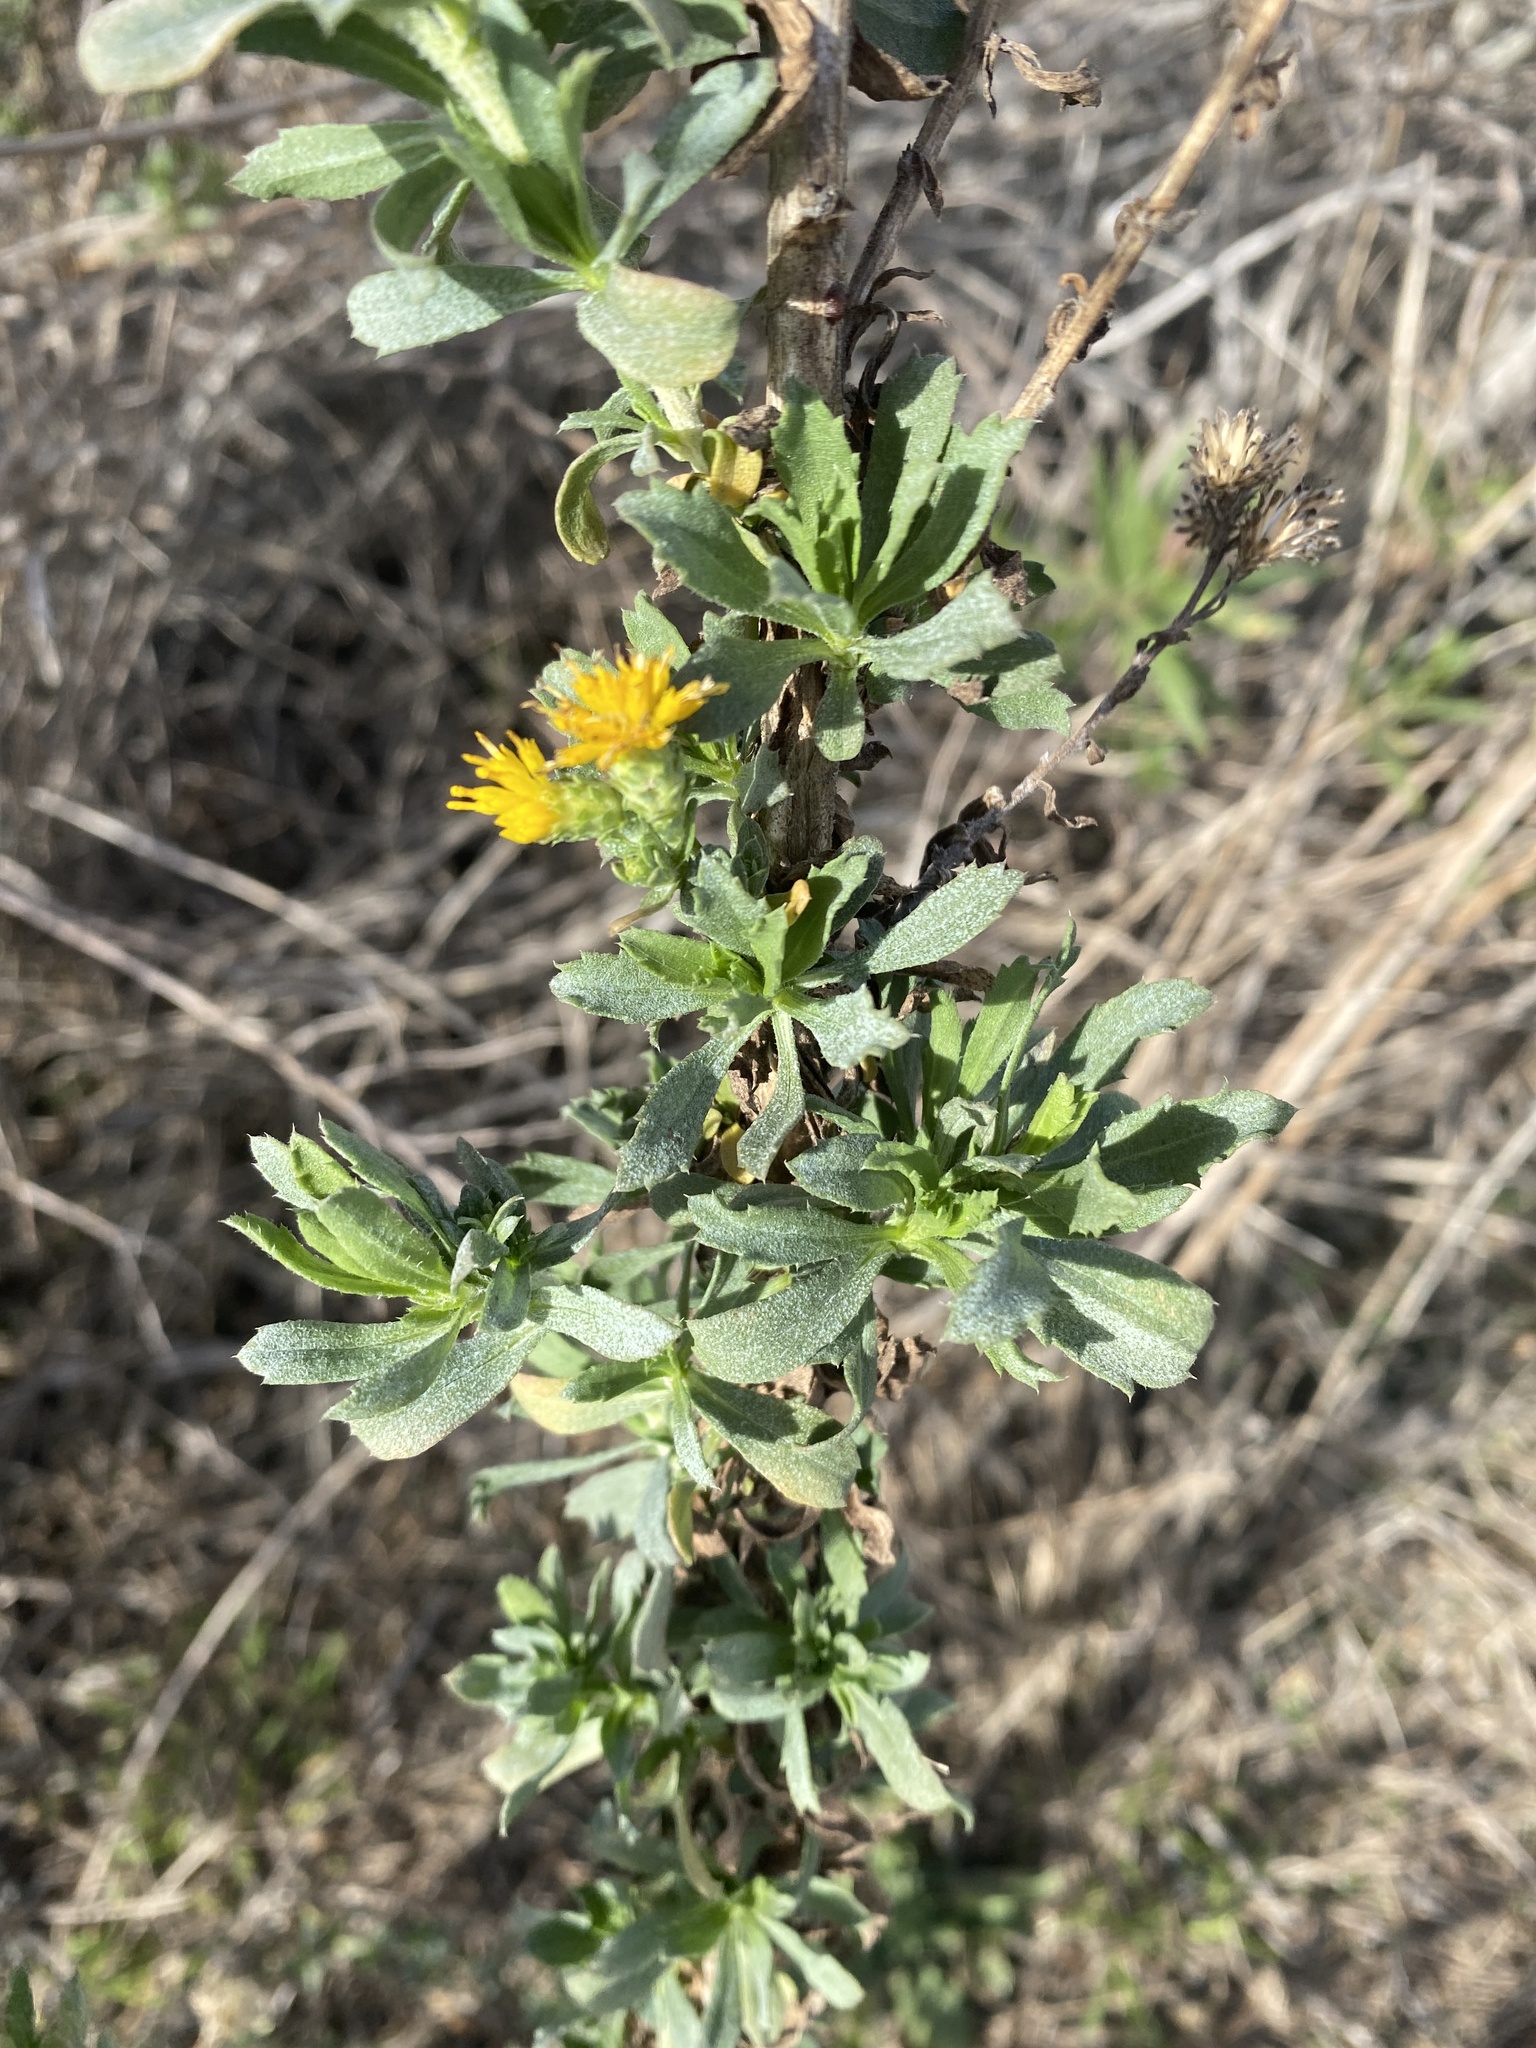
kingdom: Plantae
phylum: Tracheophyta
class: Magnoliopsida
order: Asterales
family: Asteraceae
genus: Isocoma
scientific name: Isocoma menziesii
